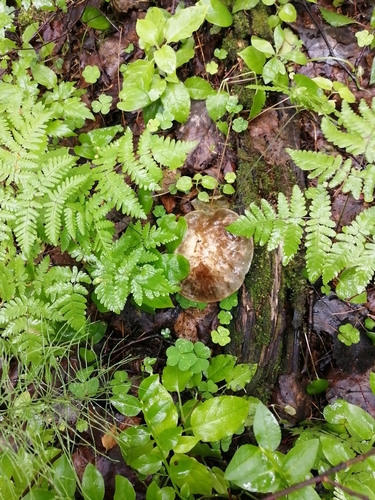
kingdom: Fungi
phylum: Basidiomycota
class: Agaricomycetes
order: Boletales
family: Boletaceae
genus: Leccinum
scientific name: Leccinum
